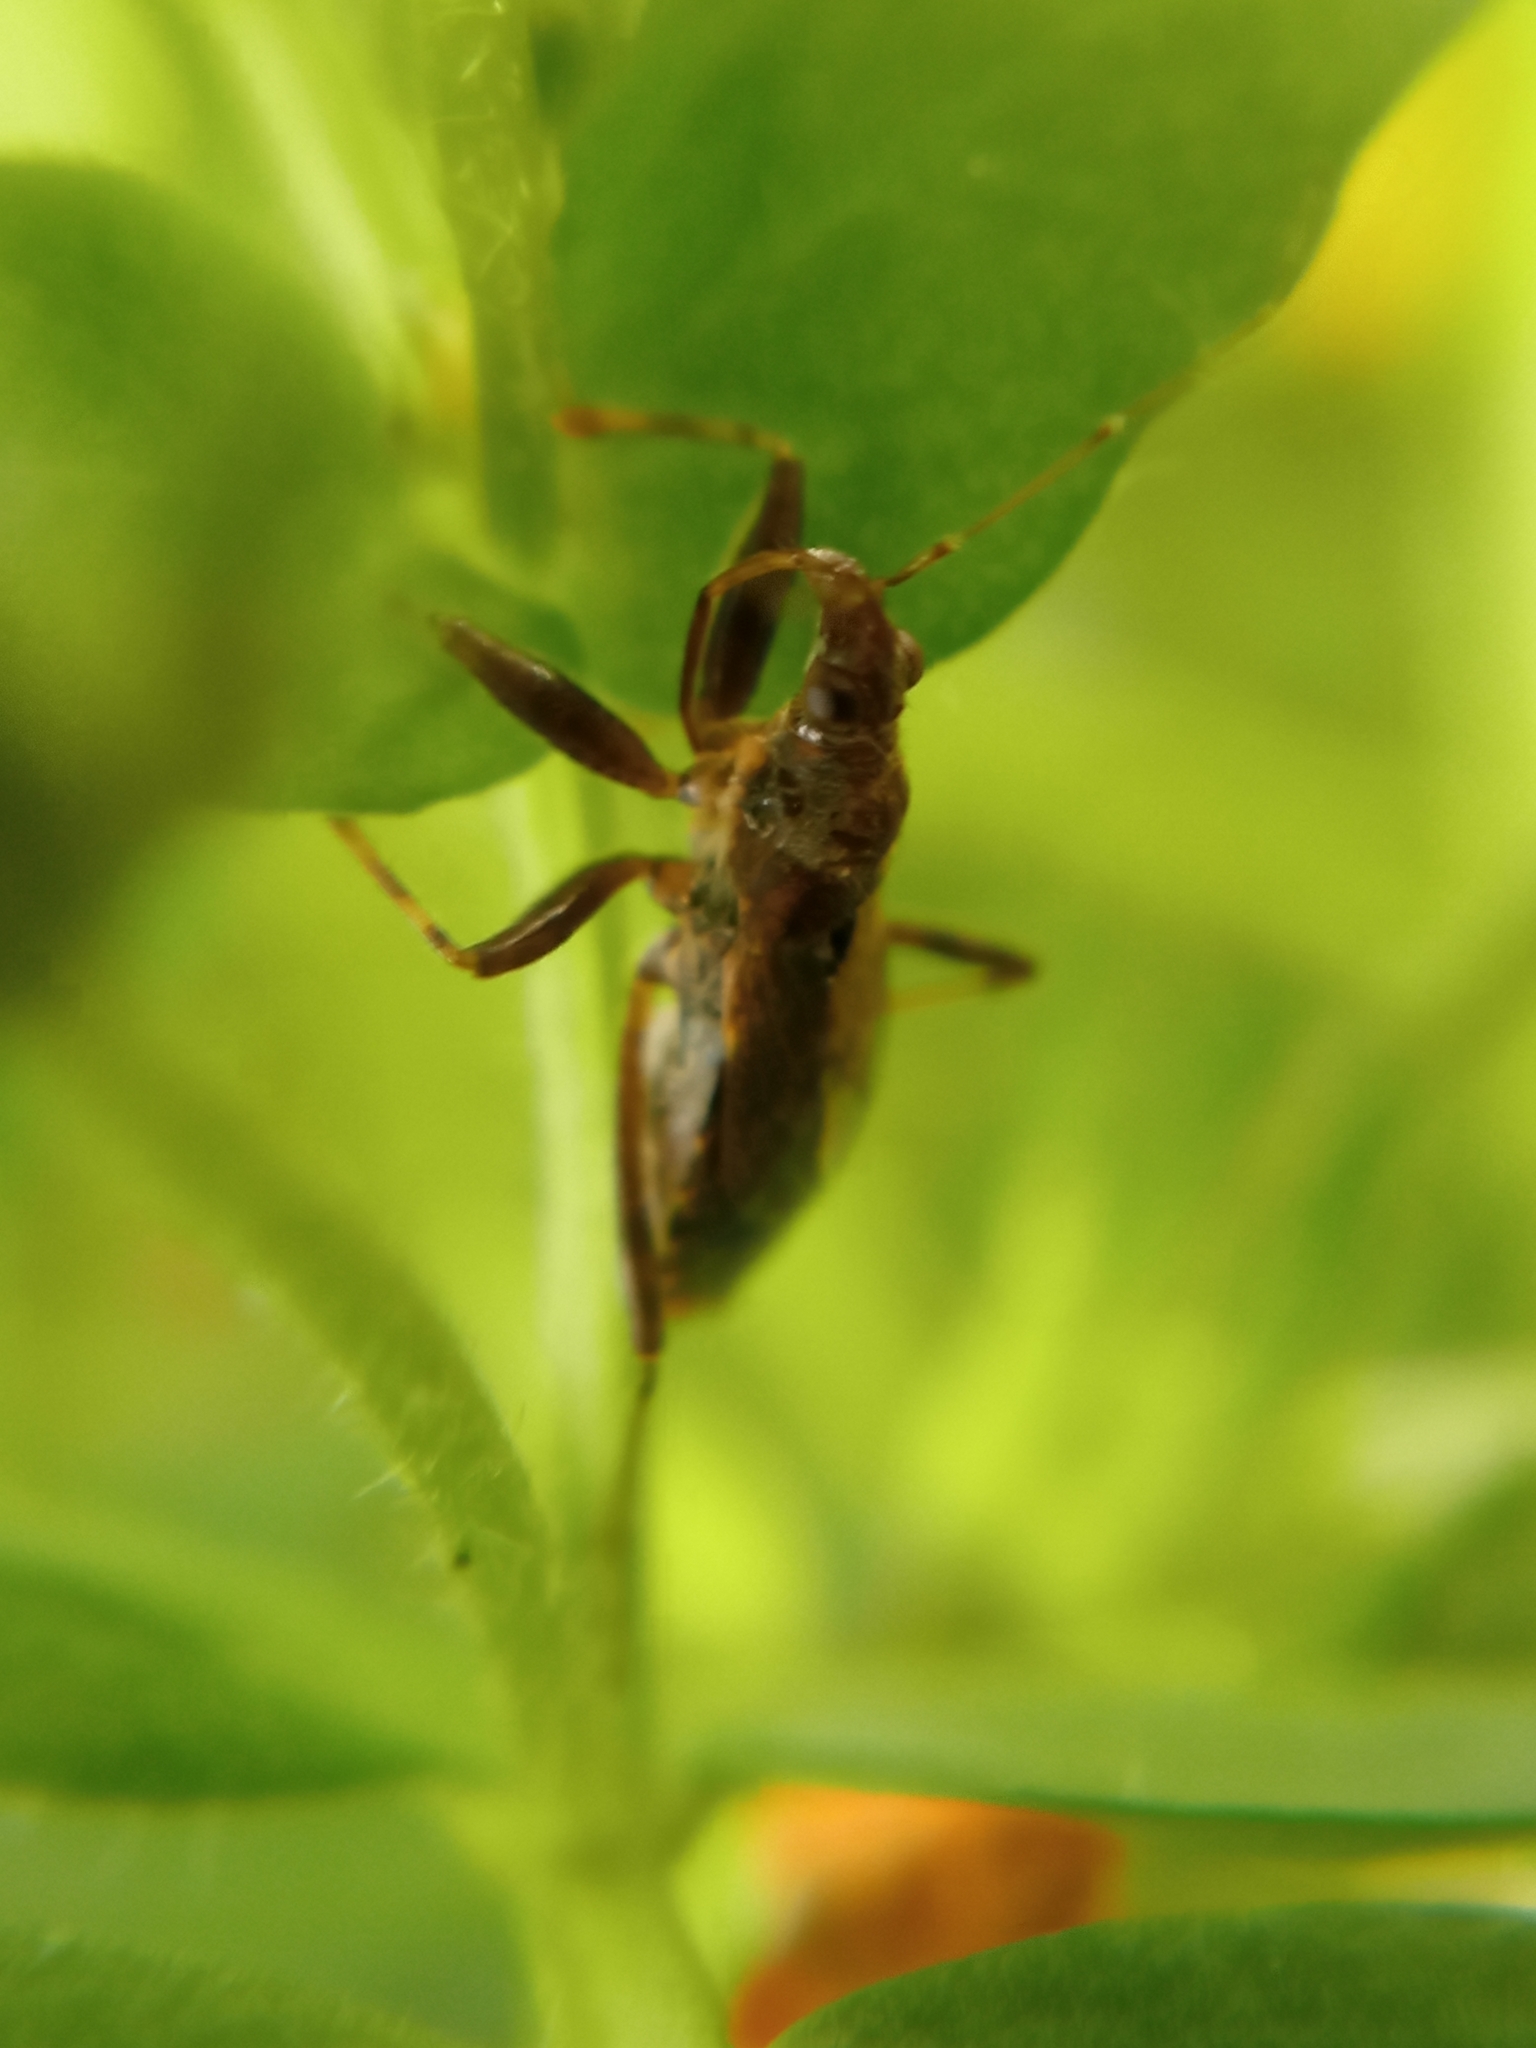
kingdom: Animalia
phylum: Arthropoda
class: Insecta
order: Hemiptera
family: Nabidae
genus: Himacerus
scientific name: Himacerus mirmicoides
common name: Ant damsel bug
